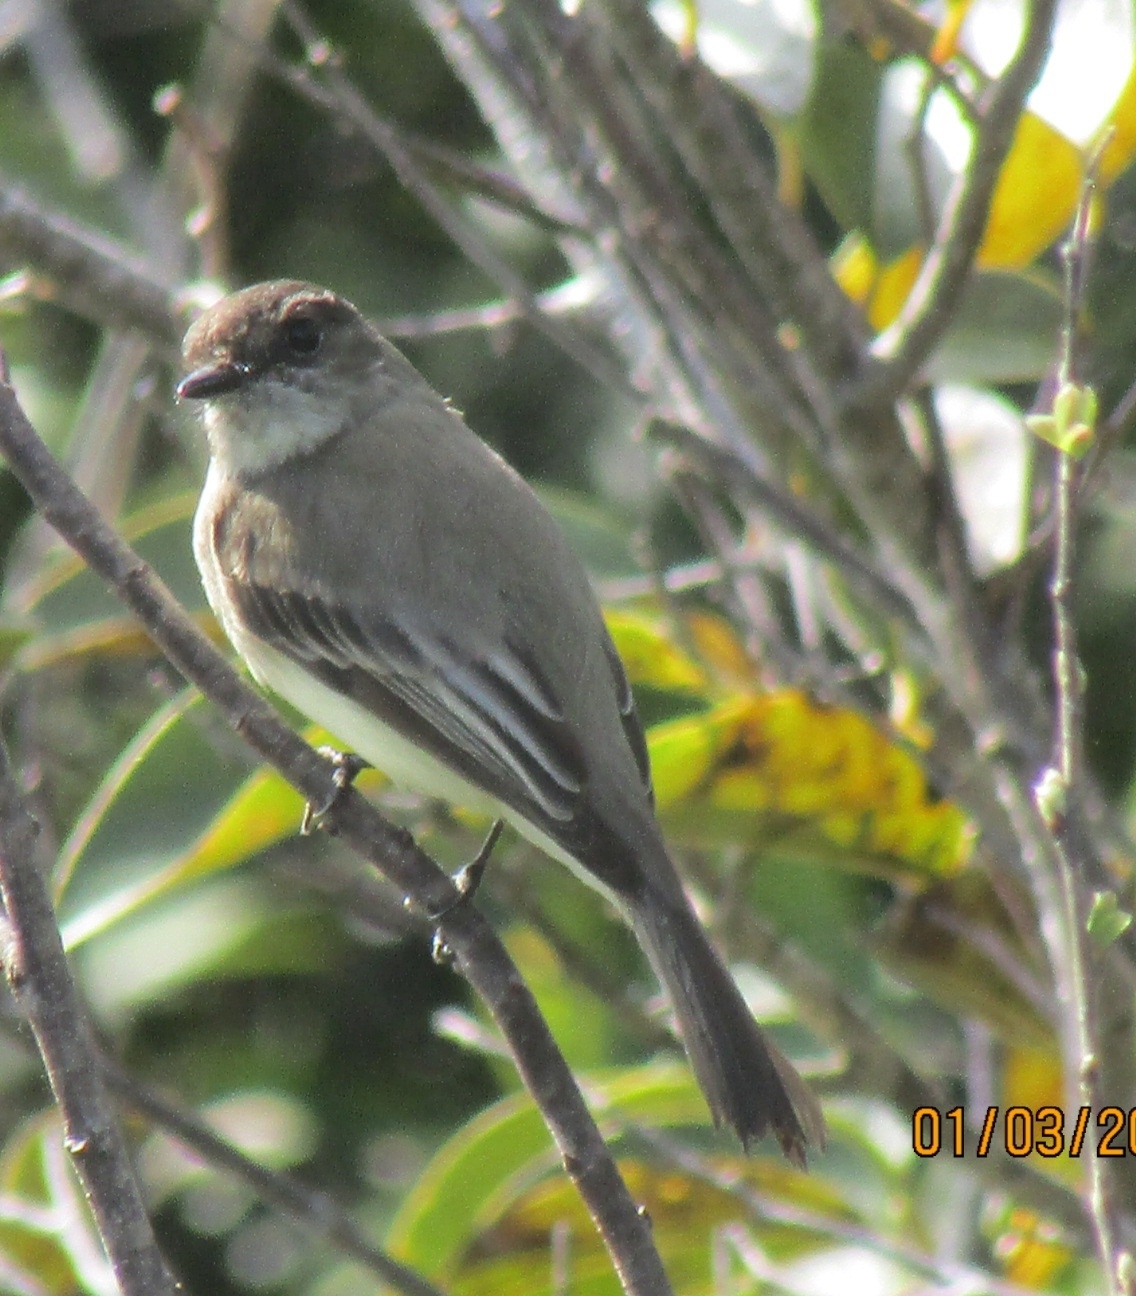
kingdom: Animalia
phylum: Chordata
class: Aves
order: Passeriformes
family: Tyrannidae
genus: Sayornis
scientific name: Sayornis phoebe
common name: Eastern phoebe
